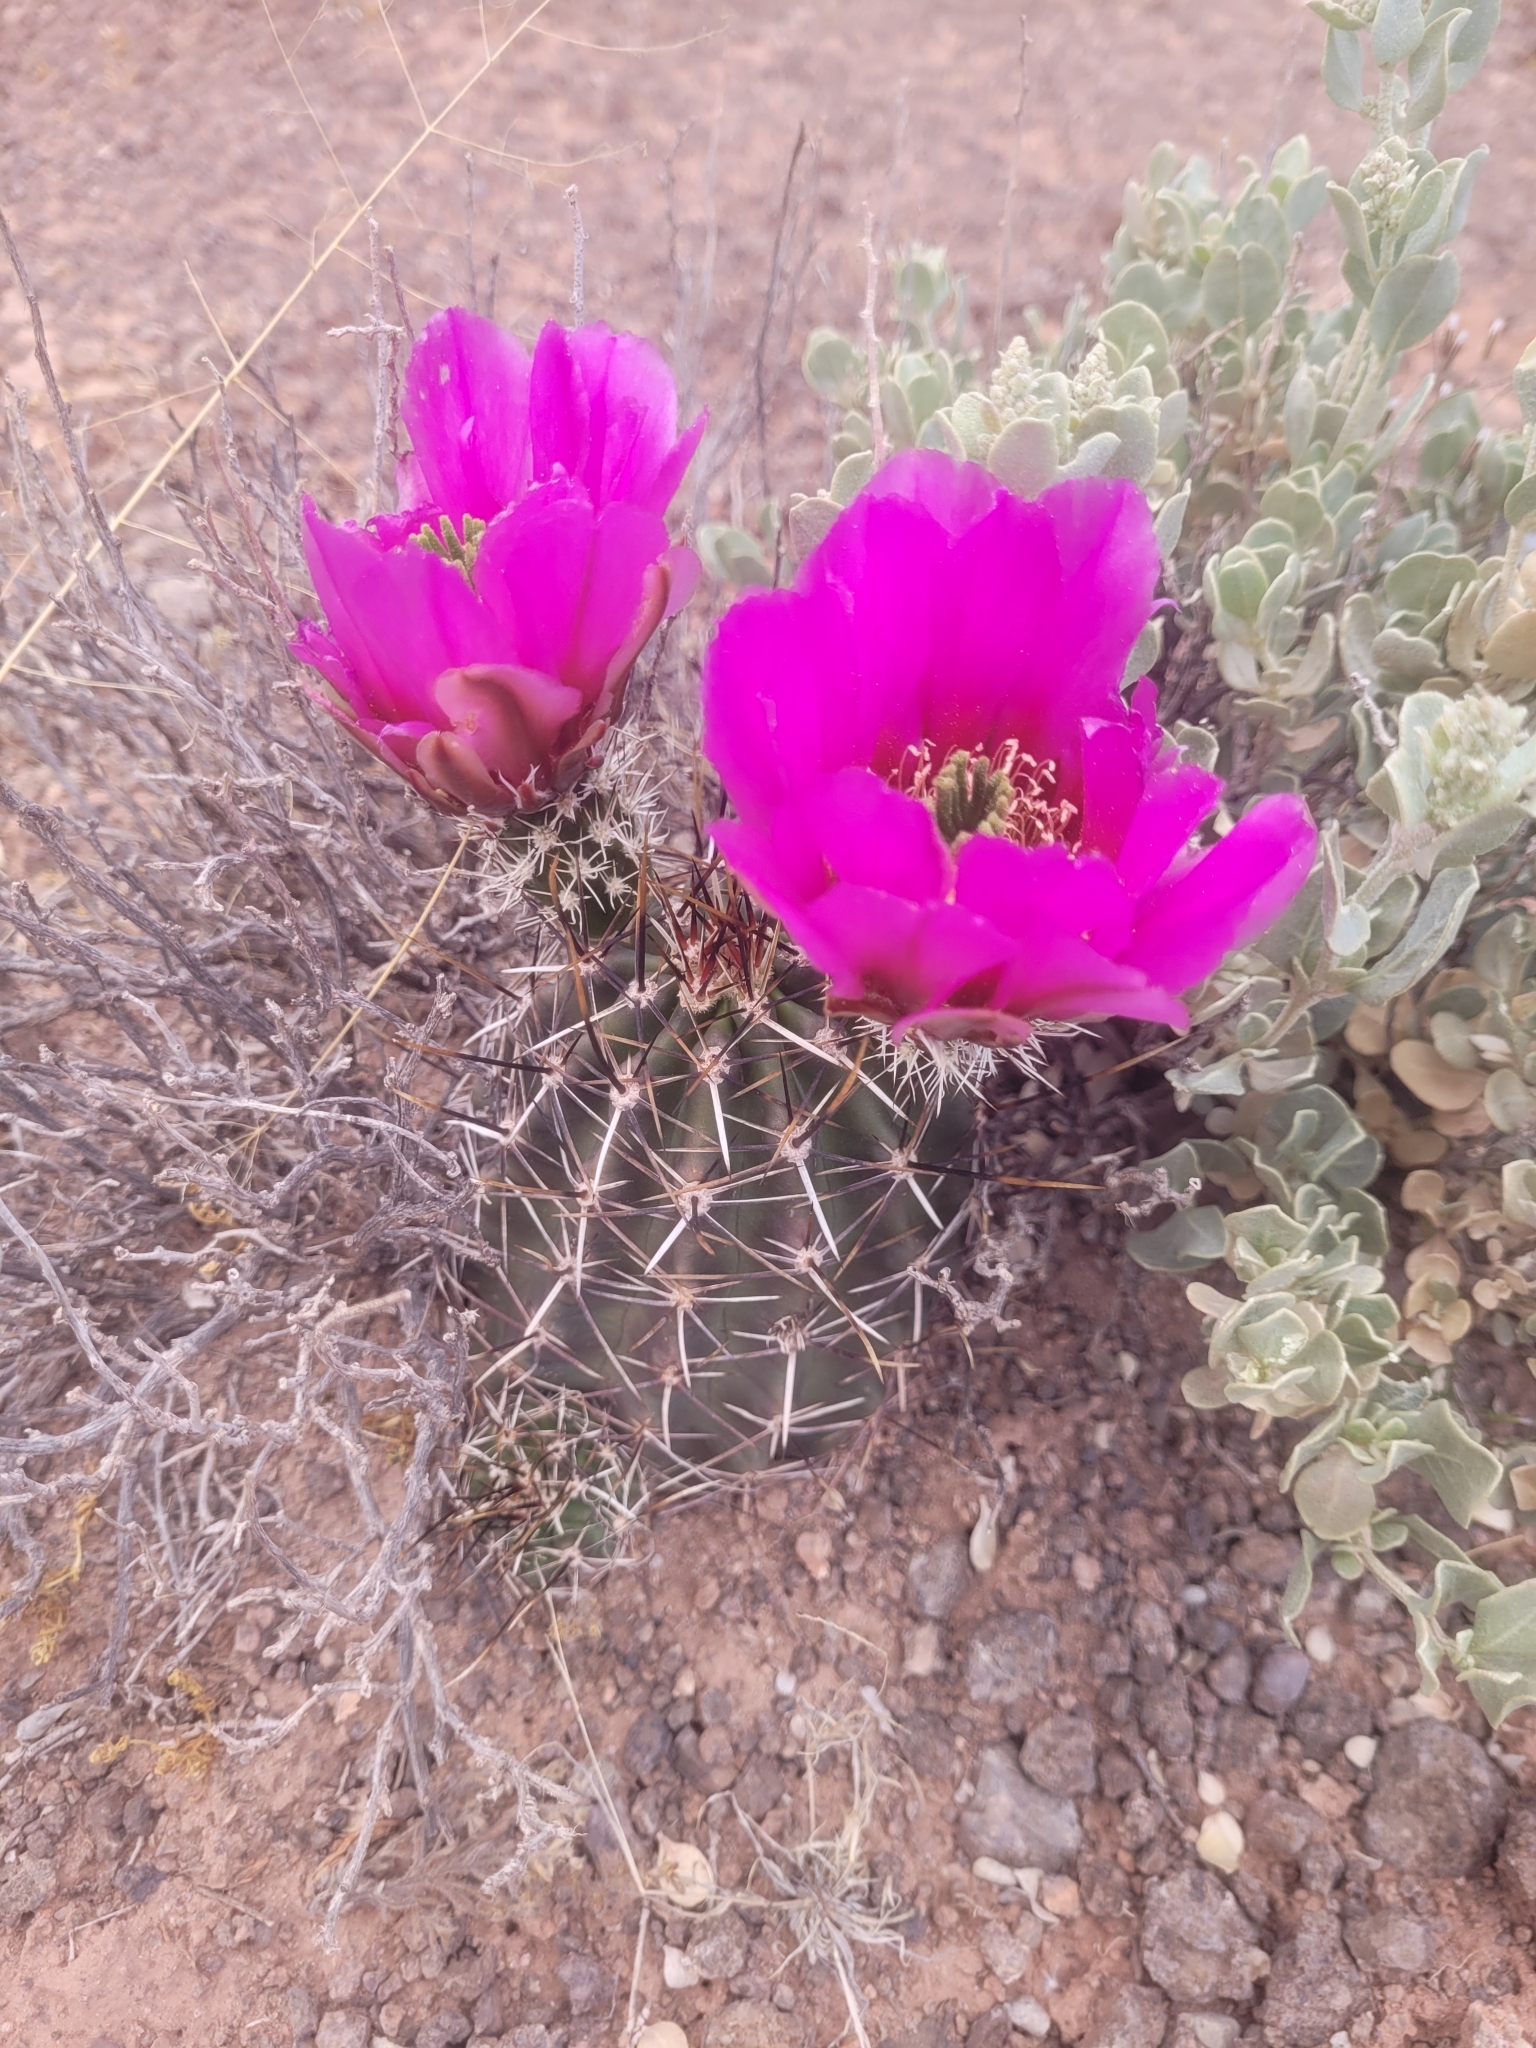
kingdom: Plantae
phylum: Tracheophyta
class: Magnoliopsida
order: Caryophyllales
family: Cactaceae
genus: Echinocereus
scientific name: Echinocereus fendleri
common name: Fendler's hedgehog cactus
